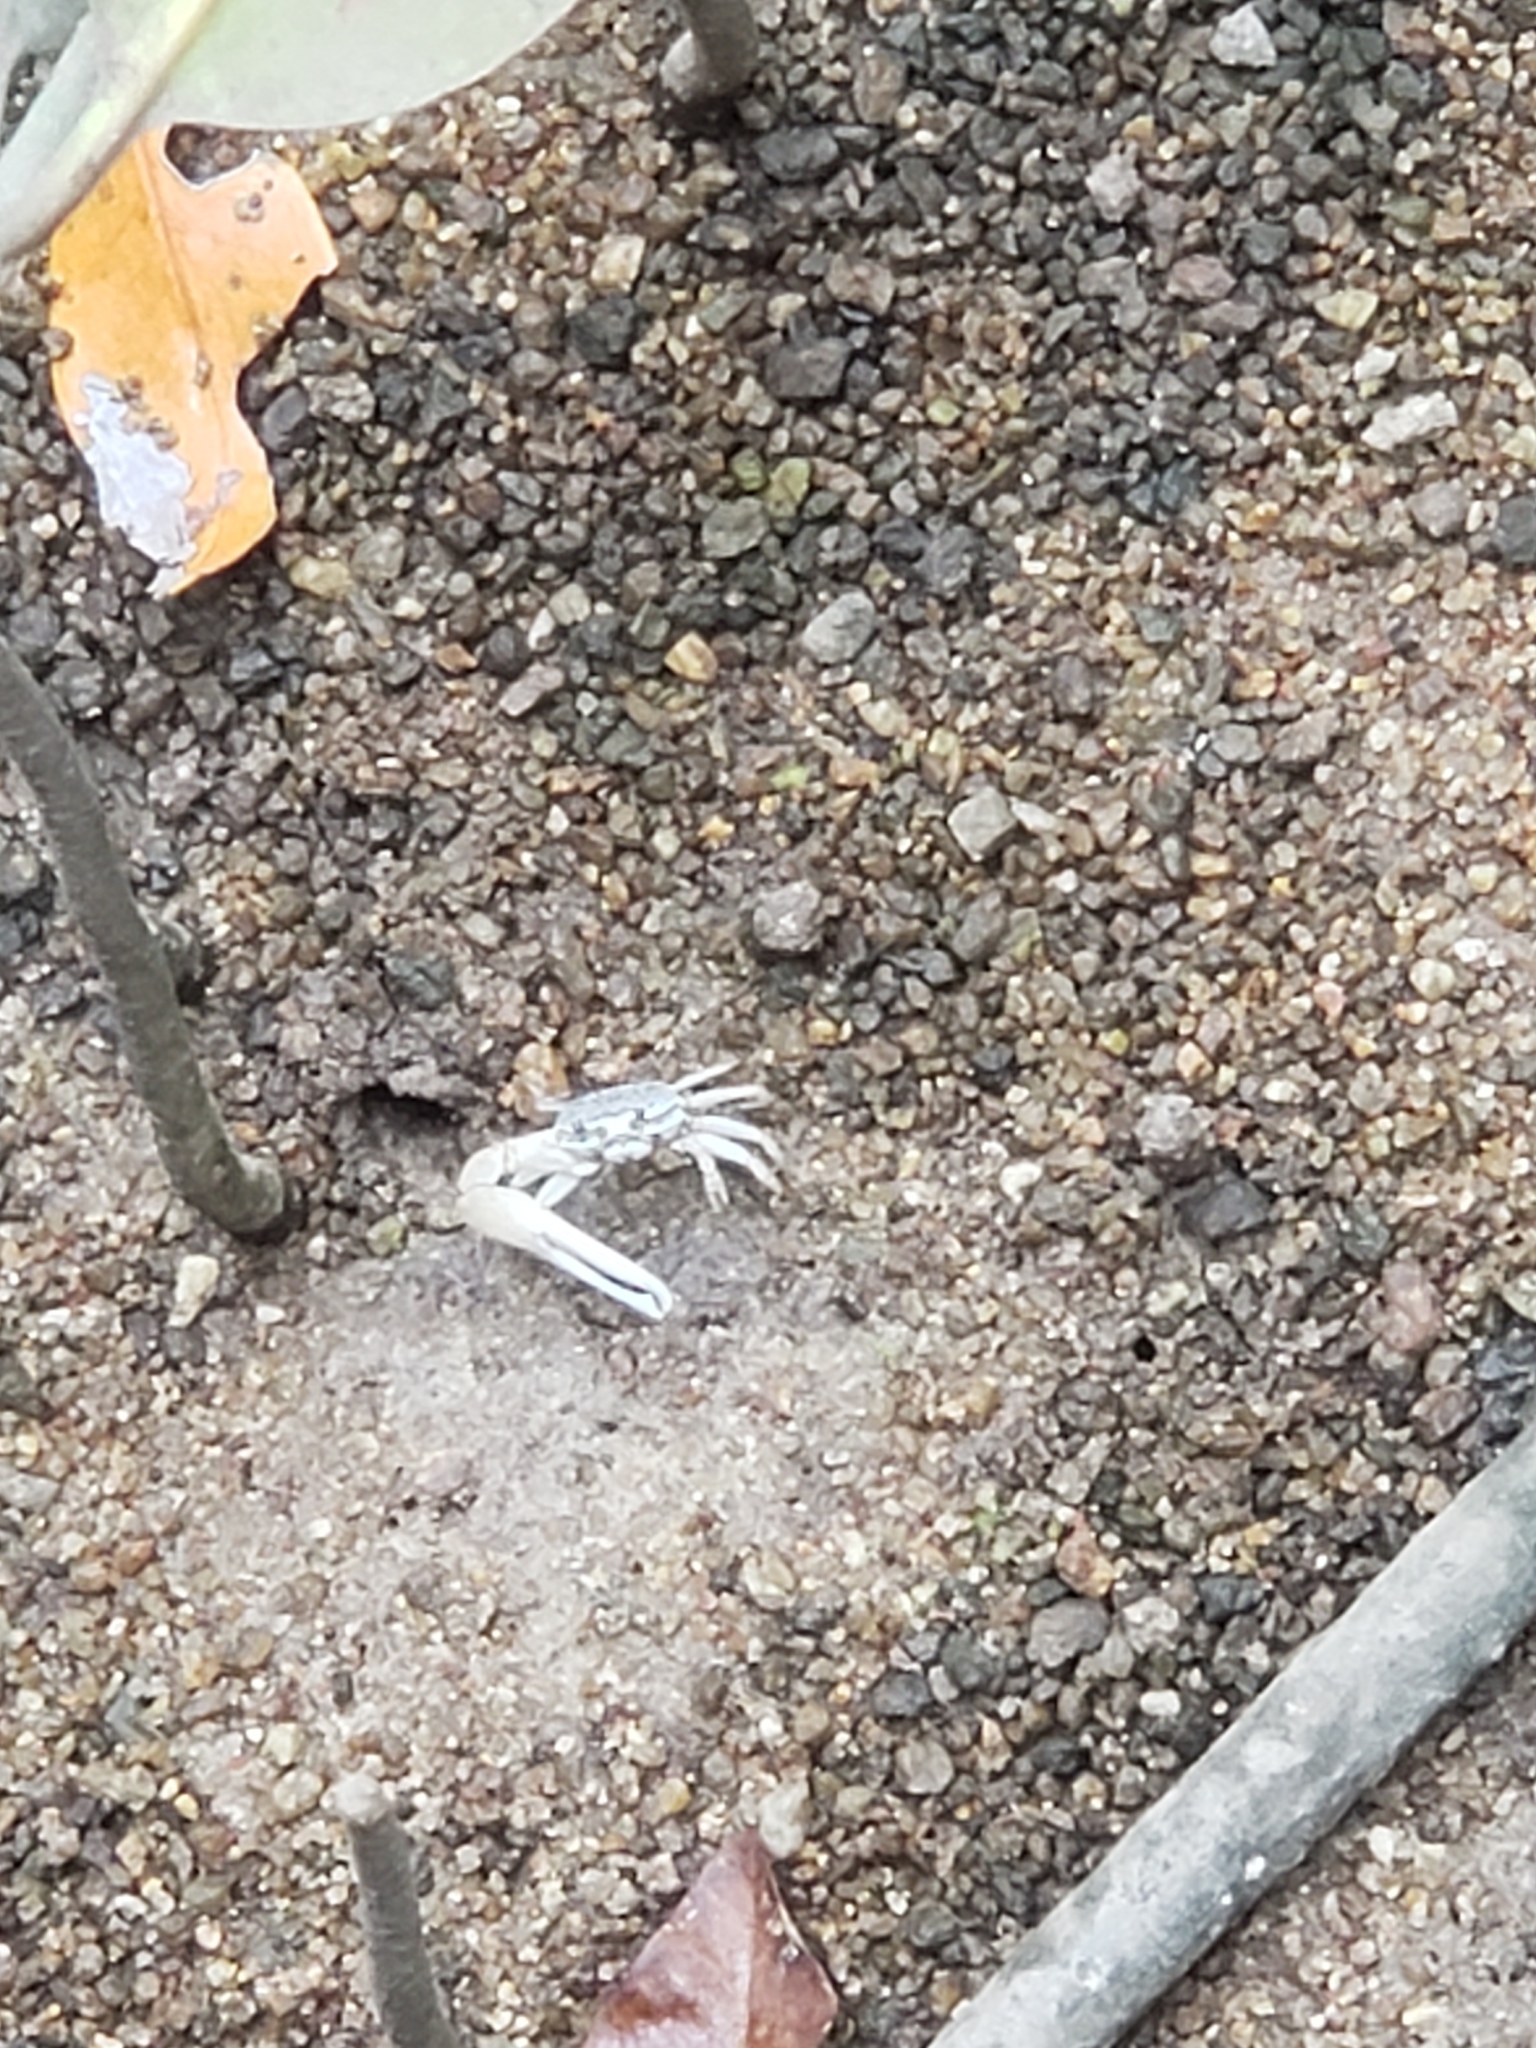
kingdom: Animalia
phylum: Arthropoda
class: Malacostraca
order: Decapoda
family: Ocypodidae
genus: Austruca
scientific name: Austruca perplexa
